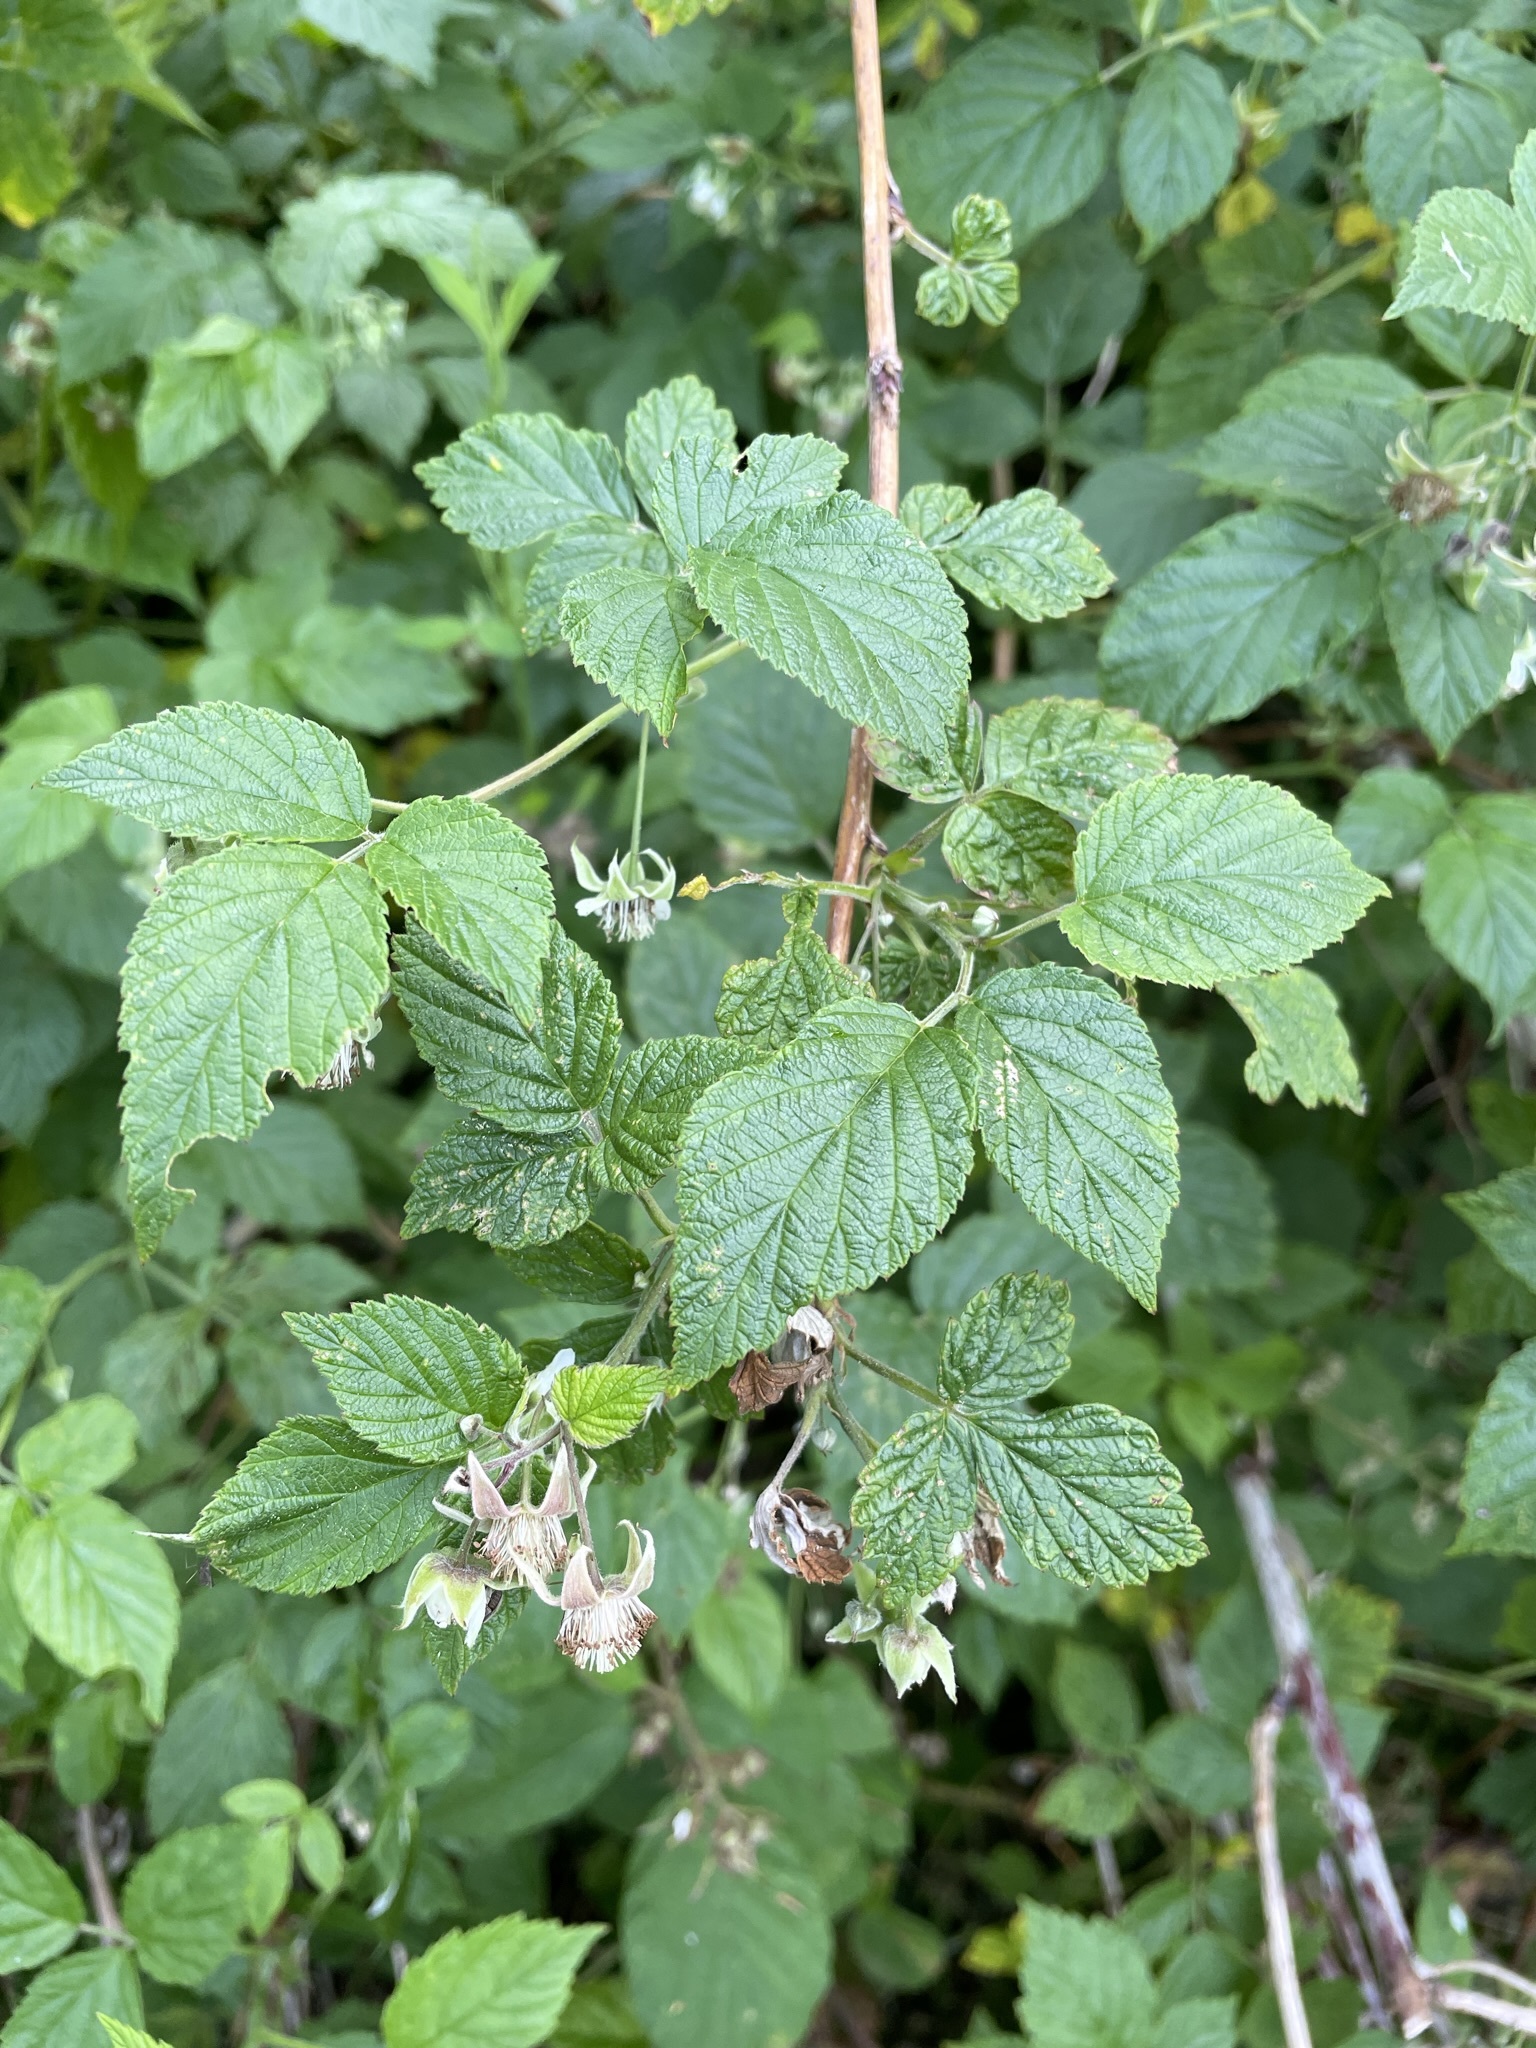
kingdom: Plantae
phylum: Tracheophyta
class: Magnoliopsida
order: Rosales
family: Rosaceae
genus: Rubus
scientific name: Rubus idaeus
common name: Raspberry
